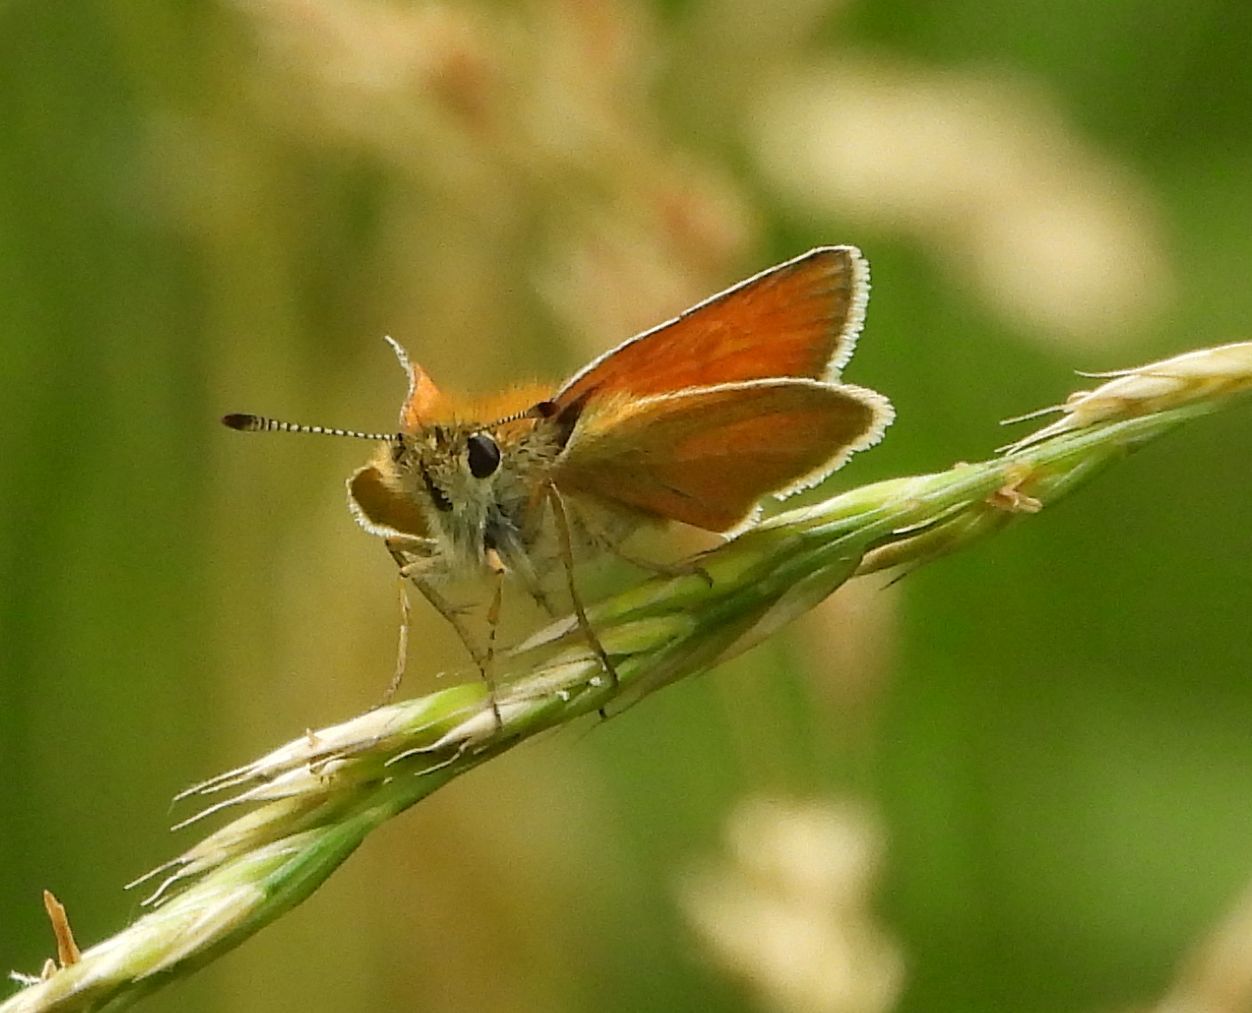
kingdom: Animalia
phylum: Arthropoda
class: Insecta
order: Lepidoptera
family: Hesperiidae
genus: Thymelicus
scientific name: Thymelicus lineola
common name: Essex skipper
